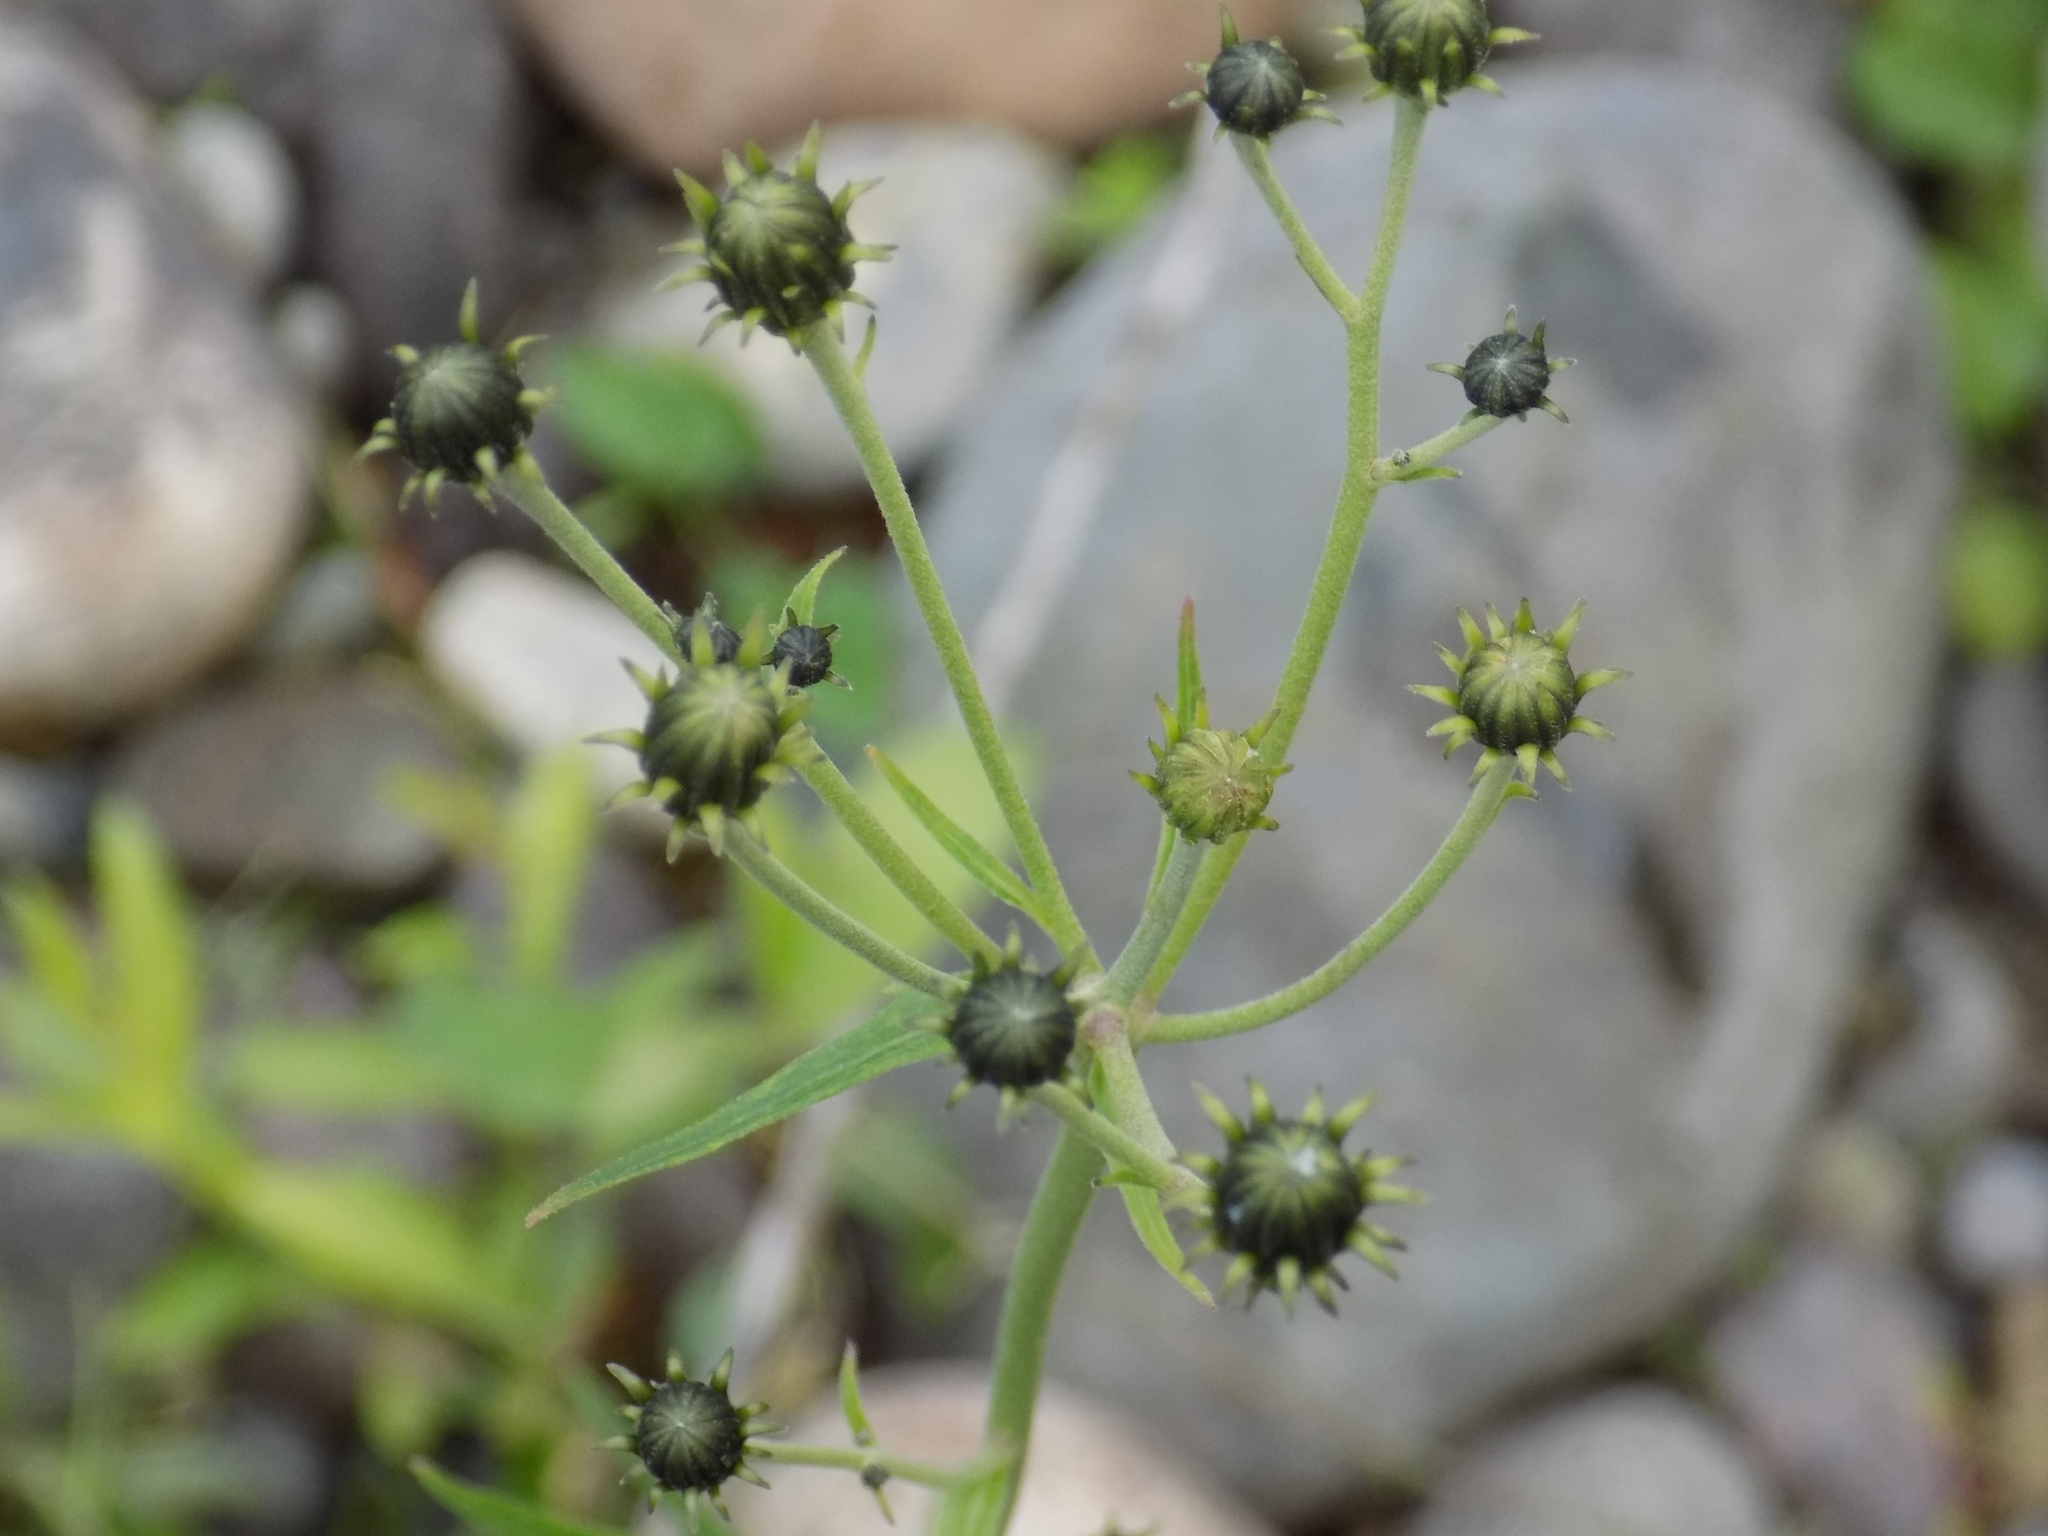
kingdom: Plantae
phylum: Tracheophyta
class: Magnoliopsida
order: Asterales
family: Asteraceae
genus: Hieracium
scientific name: Hieracium umbellatum
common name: Northern hawkweed
